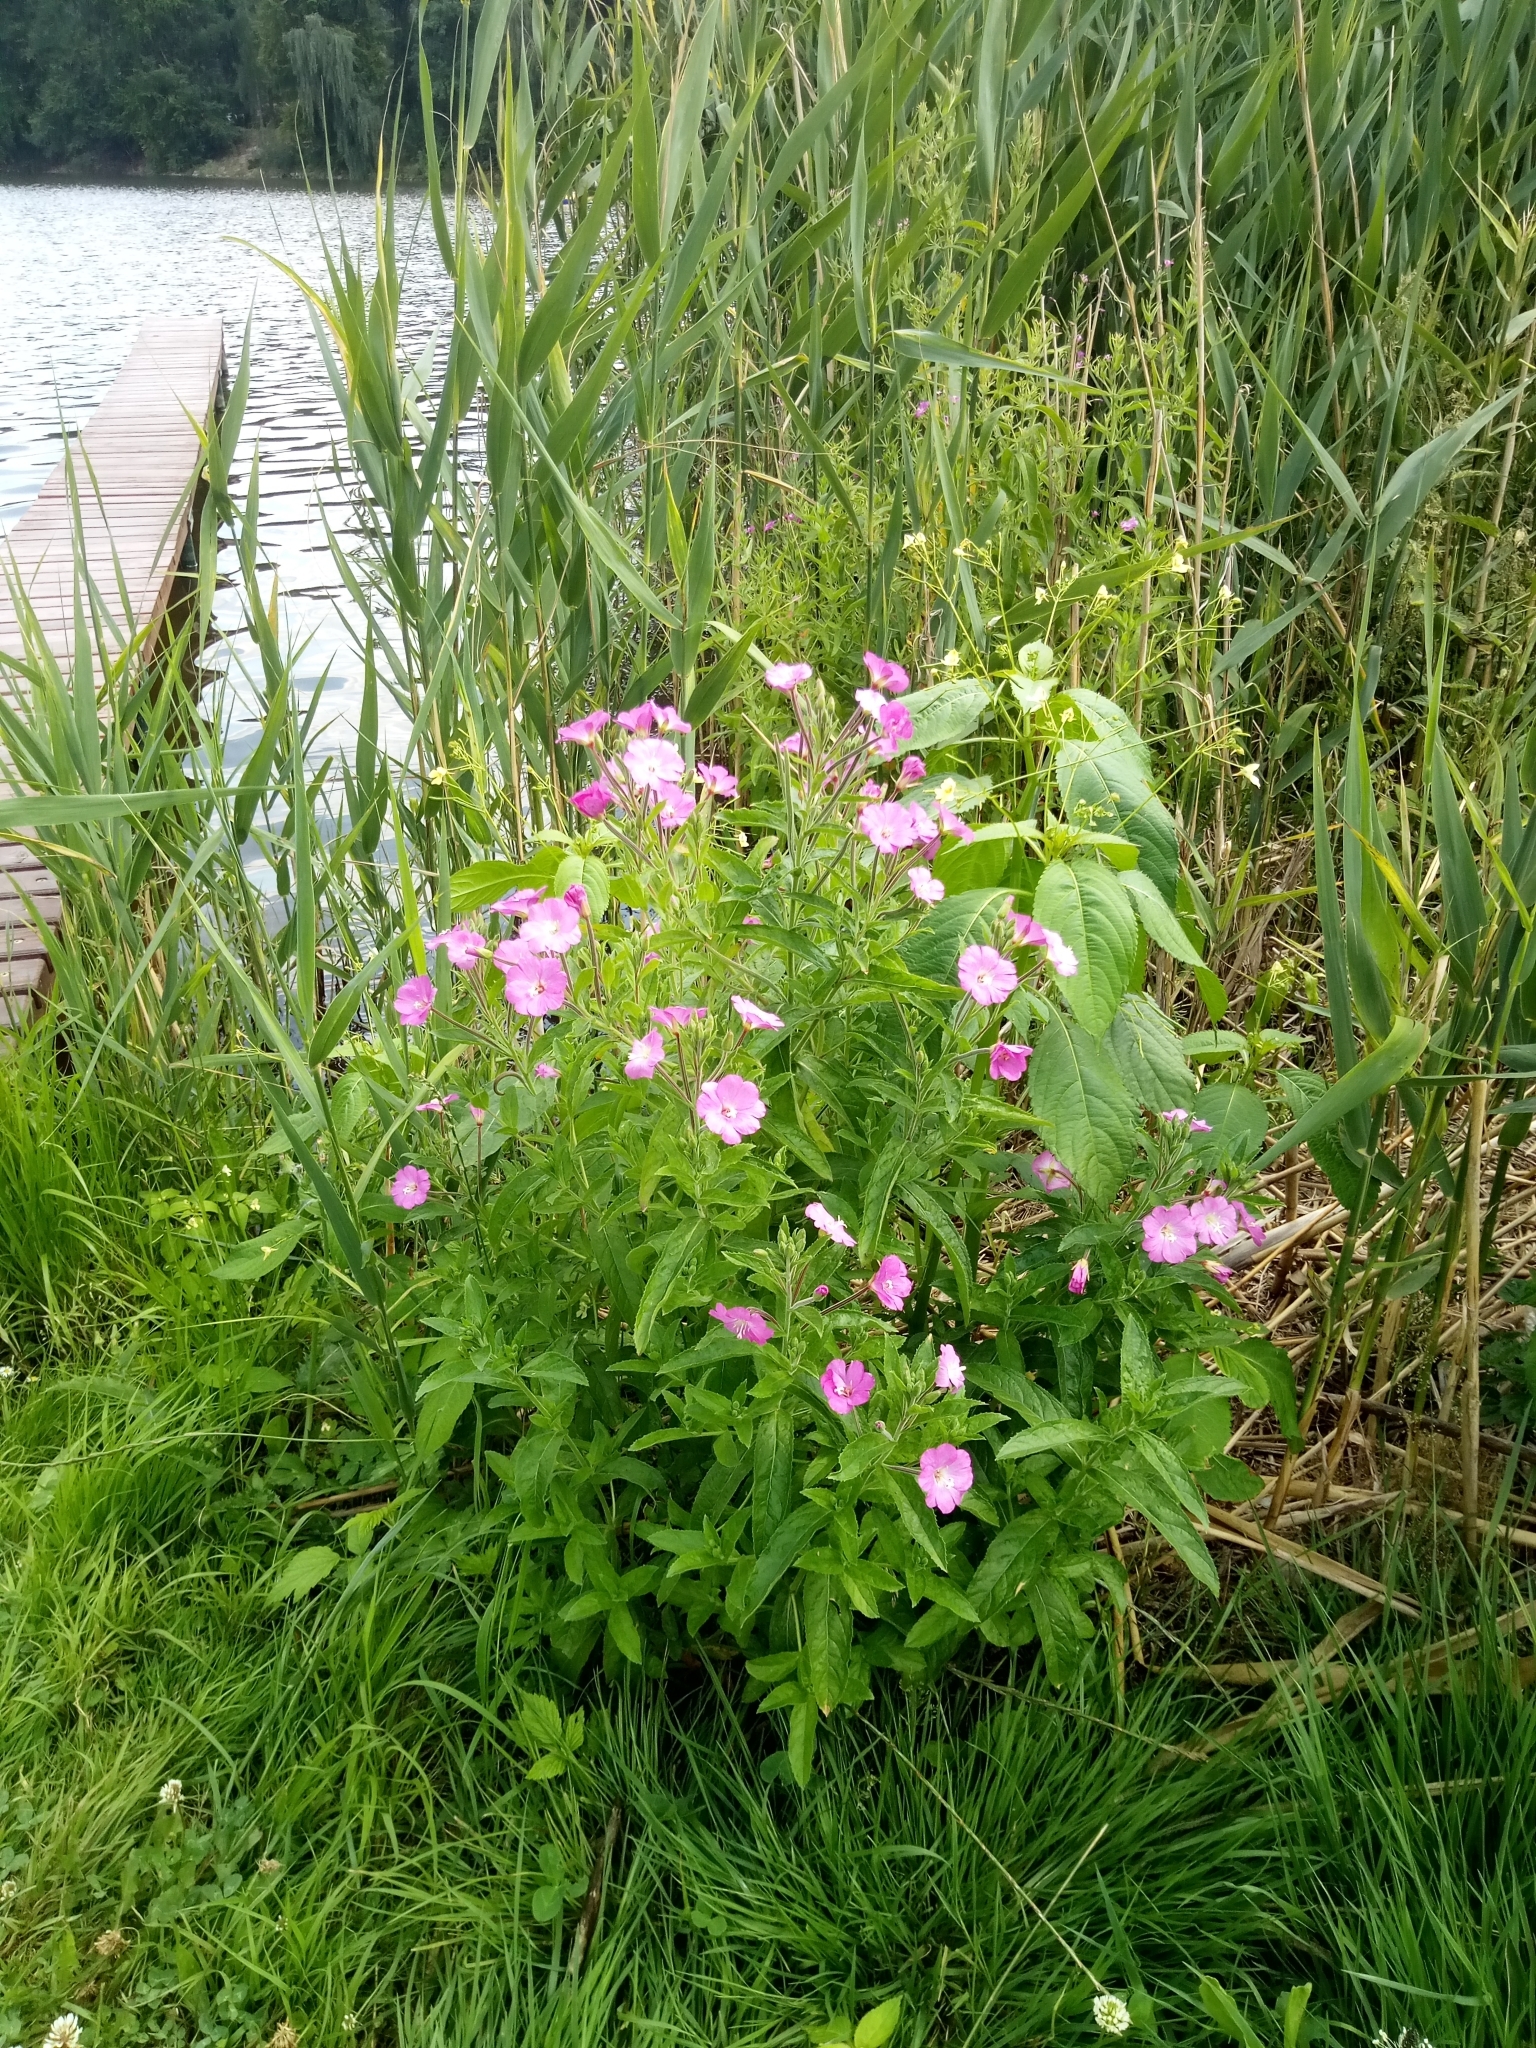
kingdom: Plantae
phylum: Tracheophyta
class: Magnoliopsida
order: Myrtales
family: Onagraceae
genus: Epilobium
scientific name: Epilobium hirsutum
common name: Great willowherb
